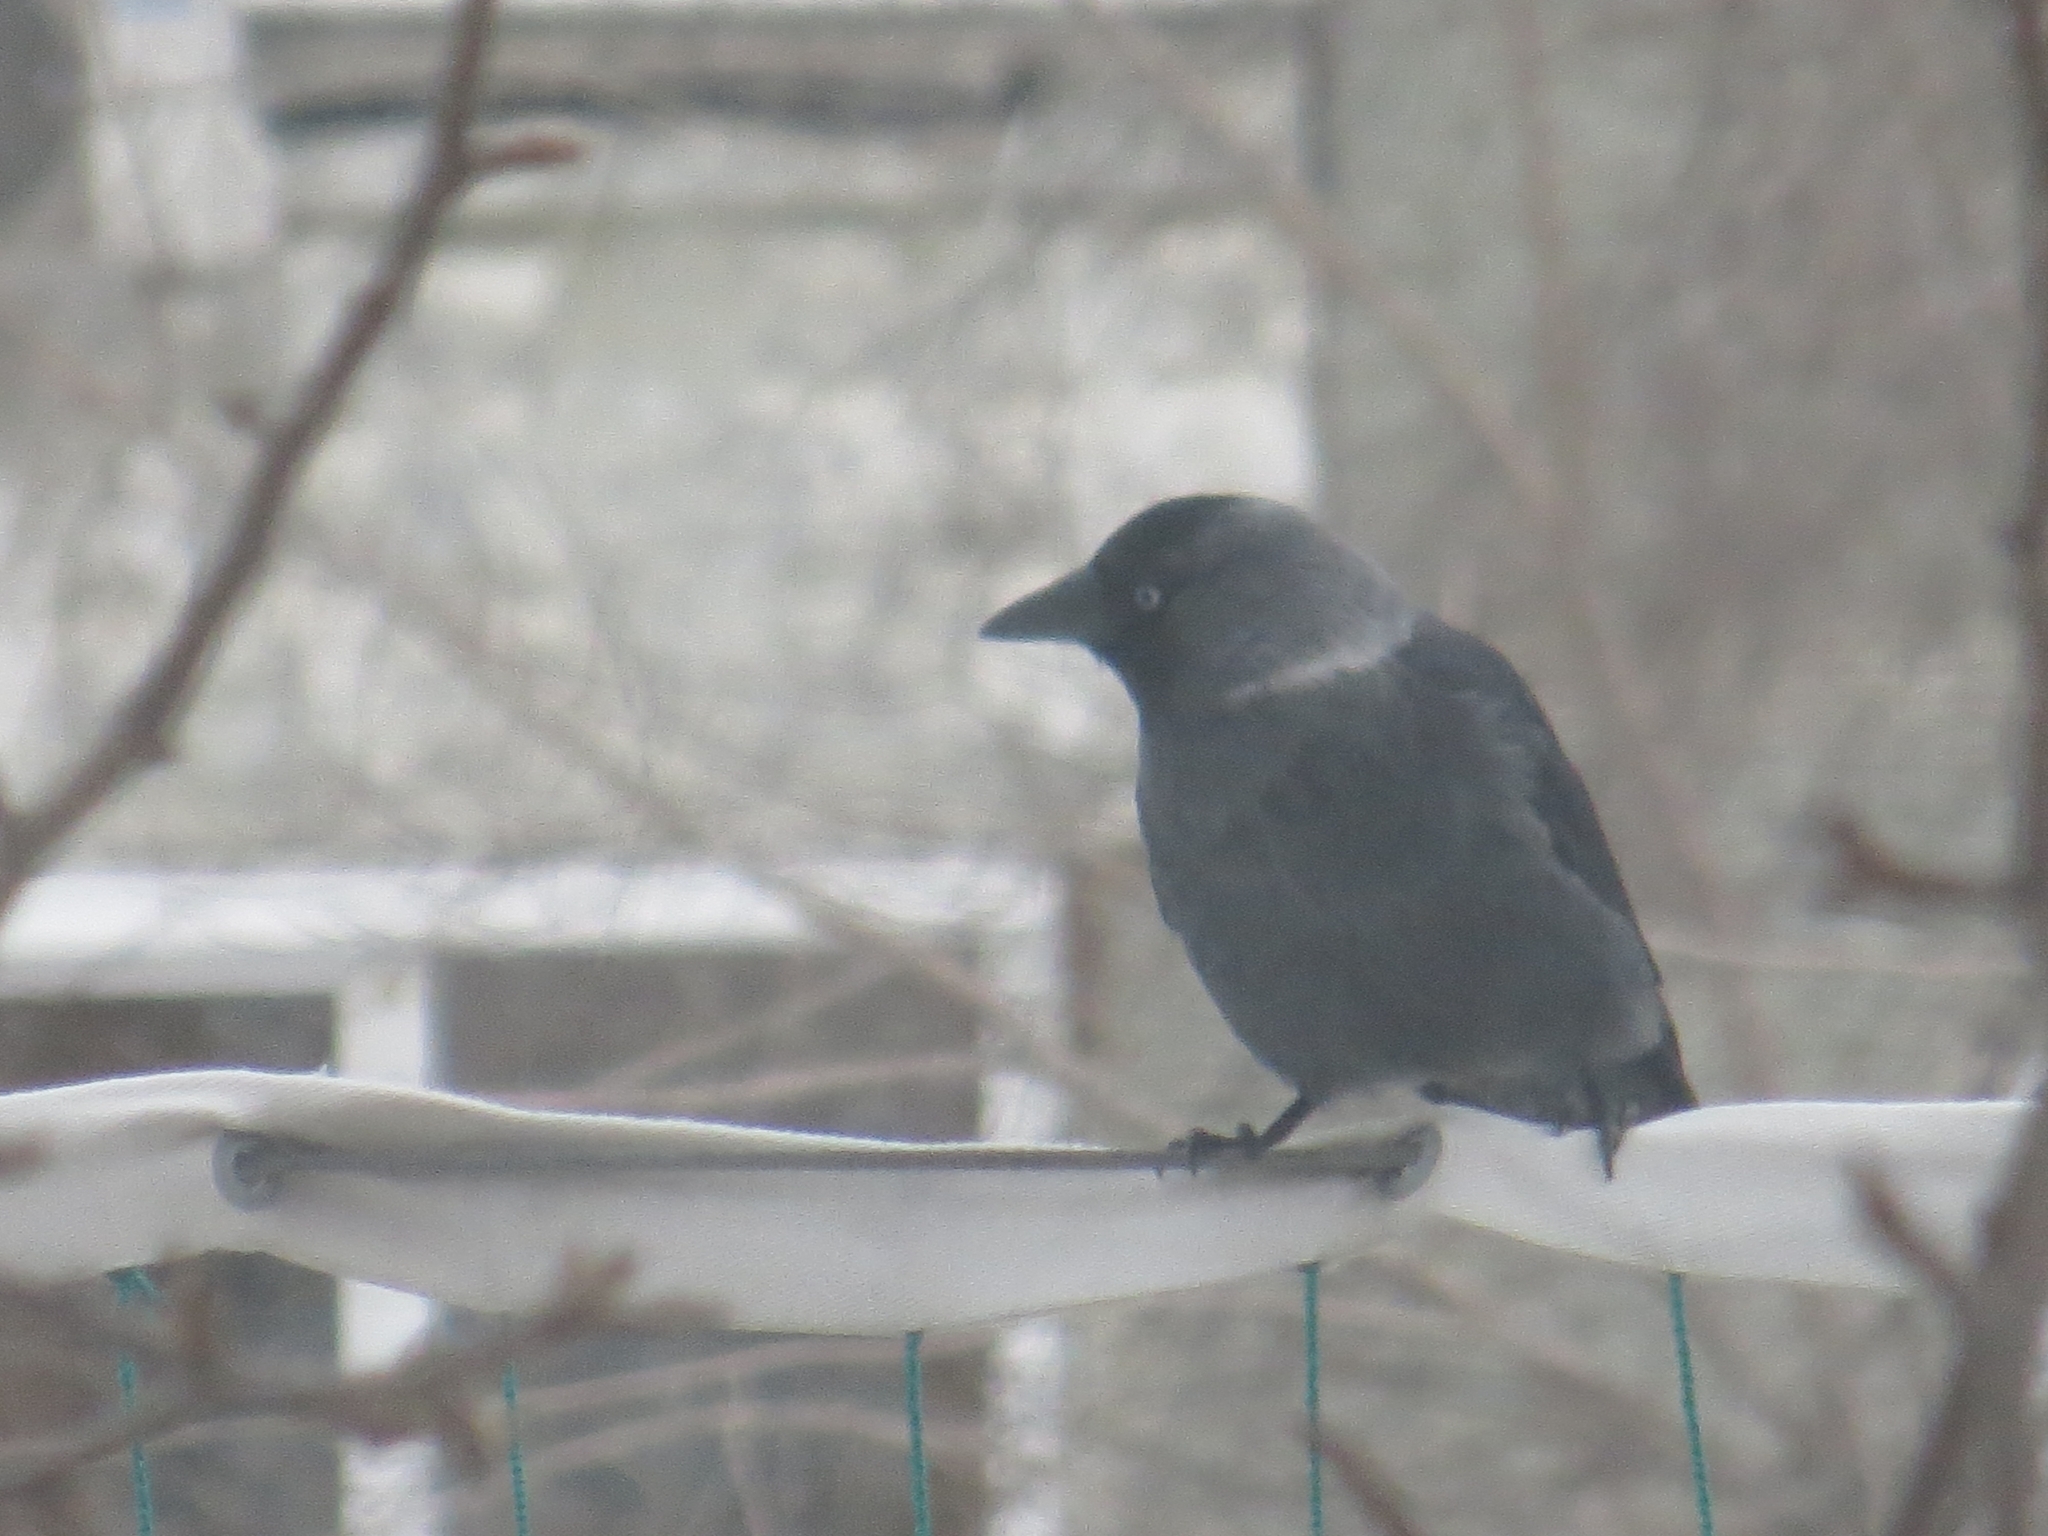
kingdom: Animalia
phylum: Chordata
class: Aves
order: Passeriformes
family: Corvidae
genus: Coloeus
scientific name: Coloeus monedula
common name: Western jackdaw
